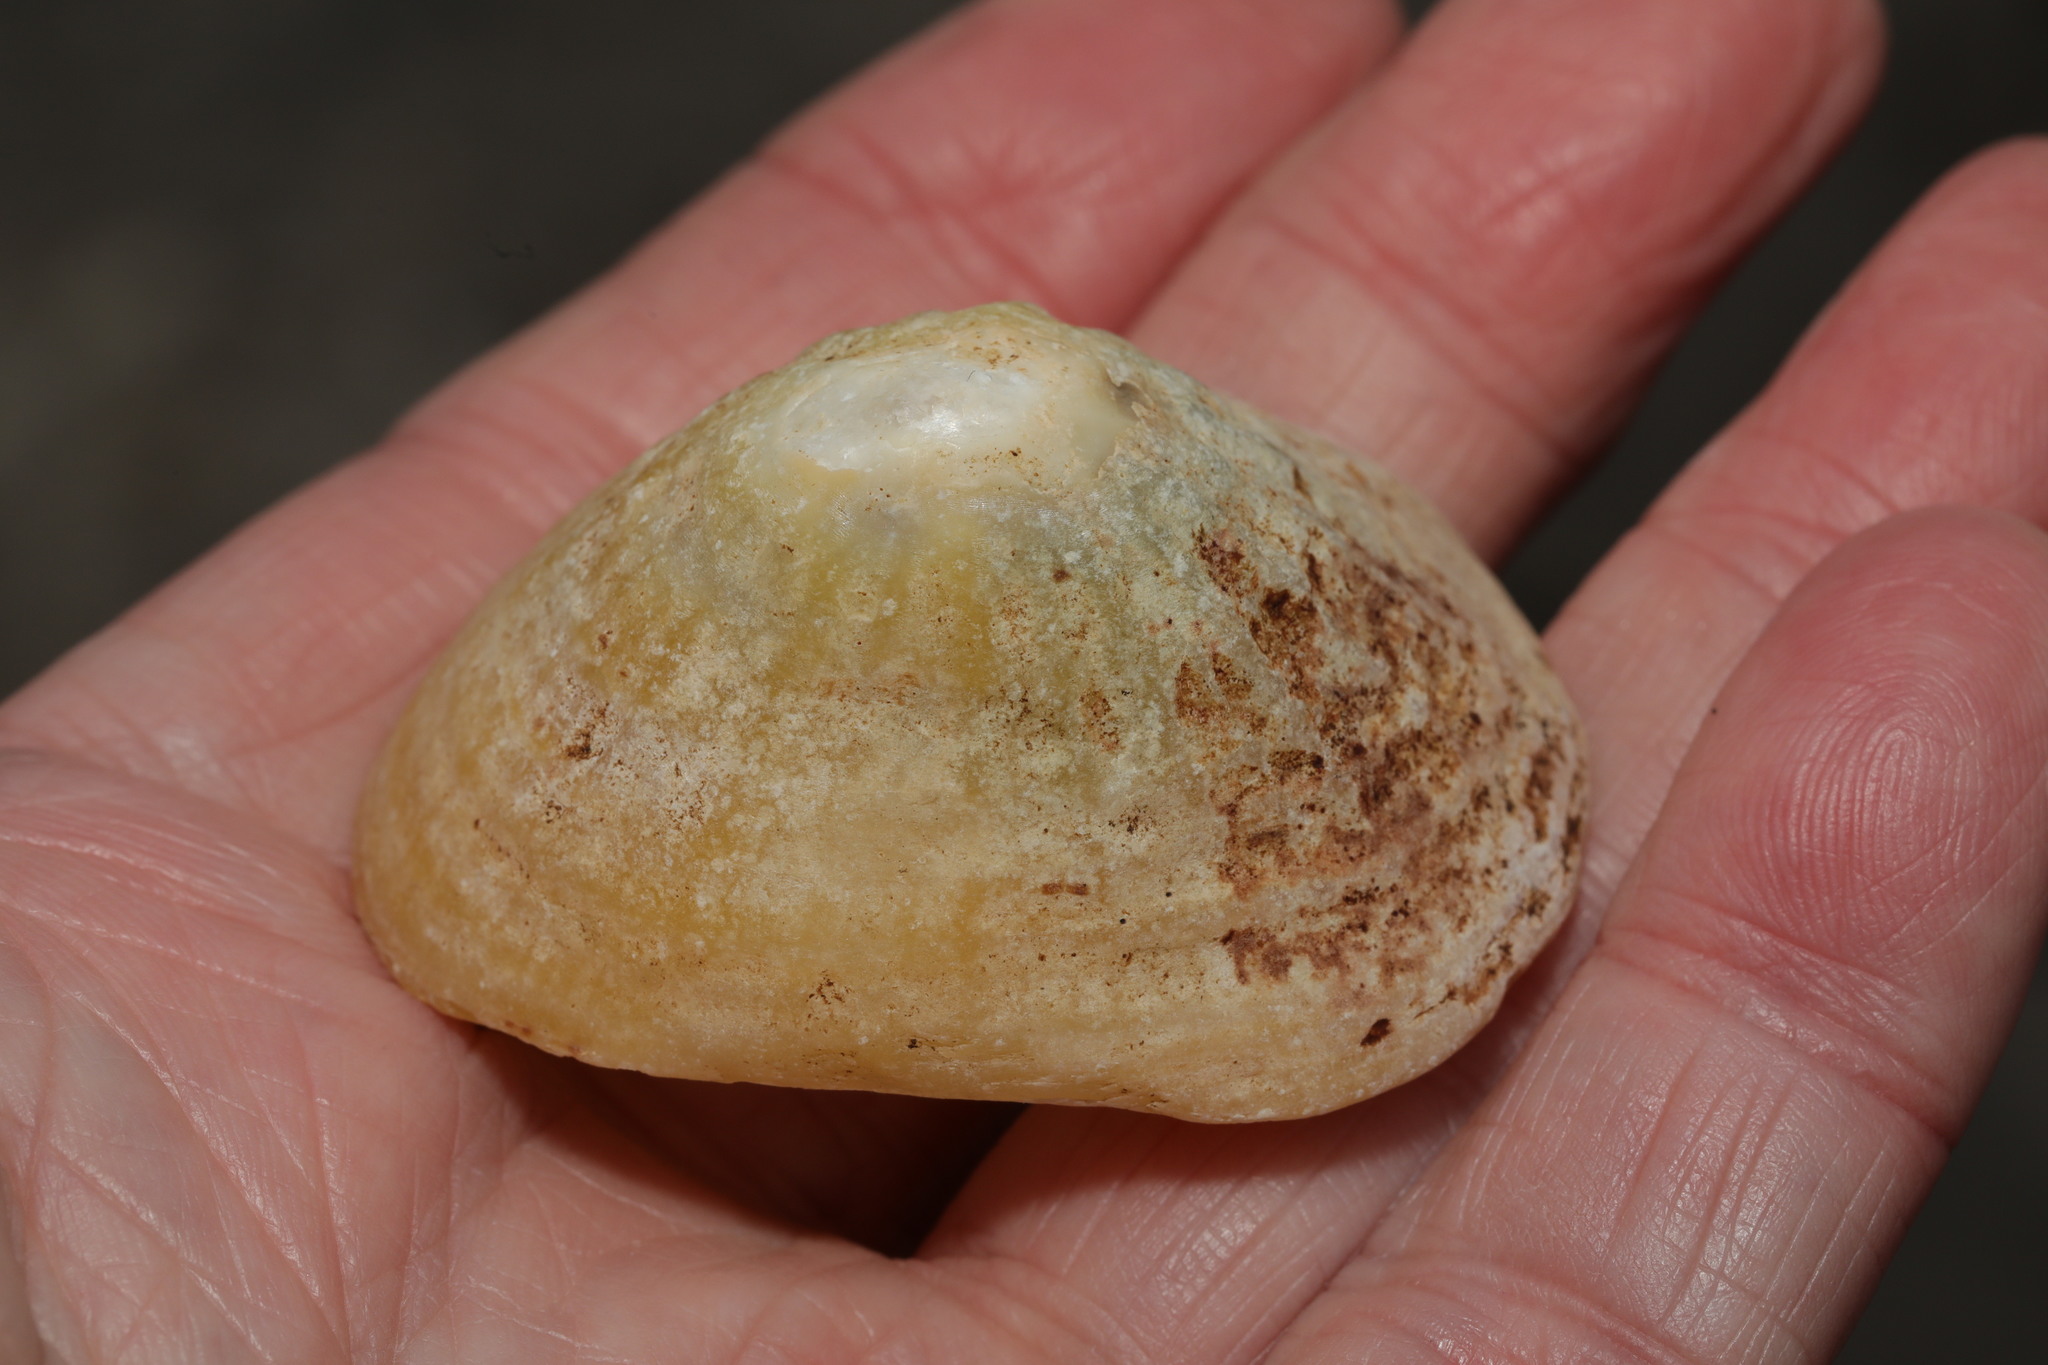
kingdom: Animalia
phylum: Mollusca
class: Gastropoda
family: Patellidae
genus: Patella
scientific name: Patella vulgata
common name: Common limpet
